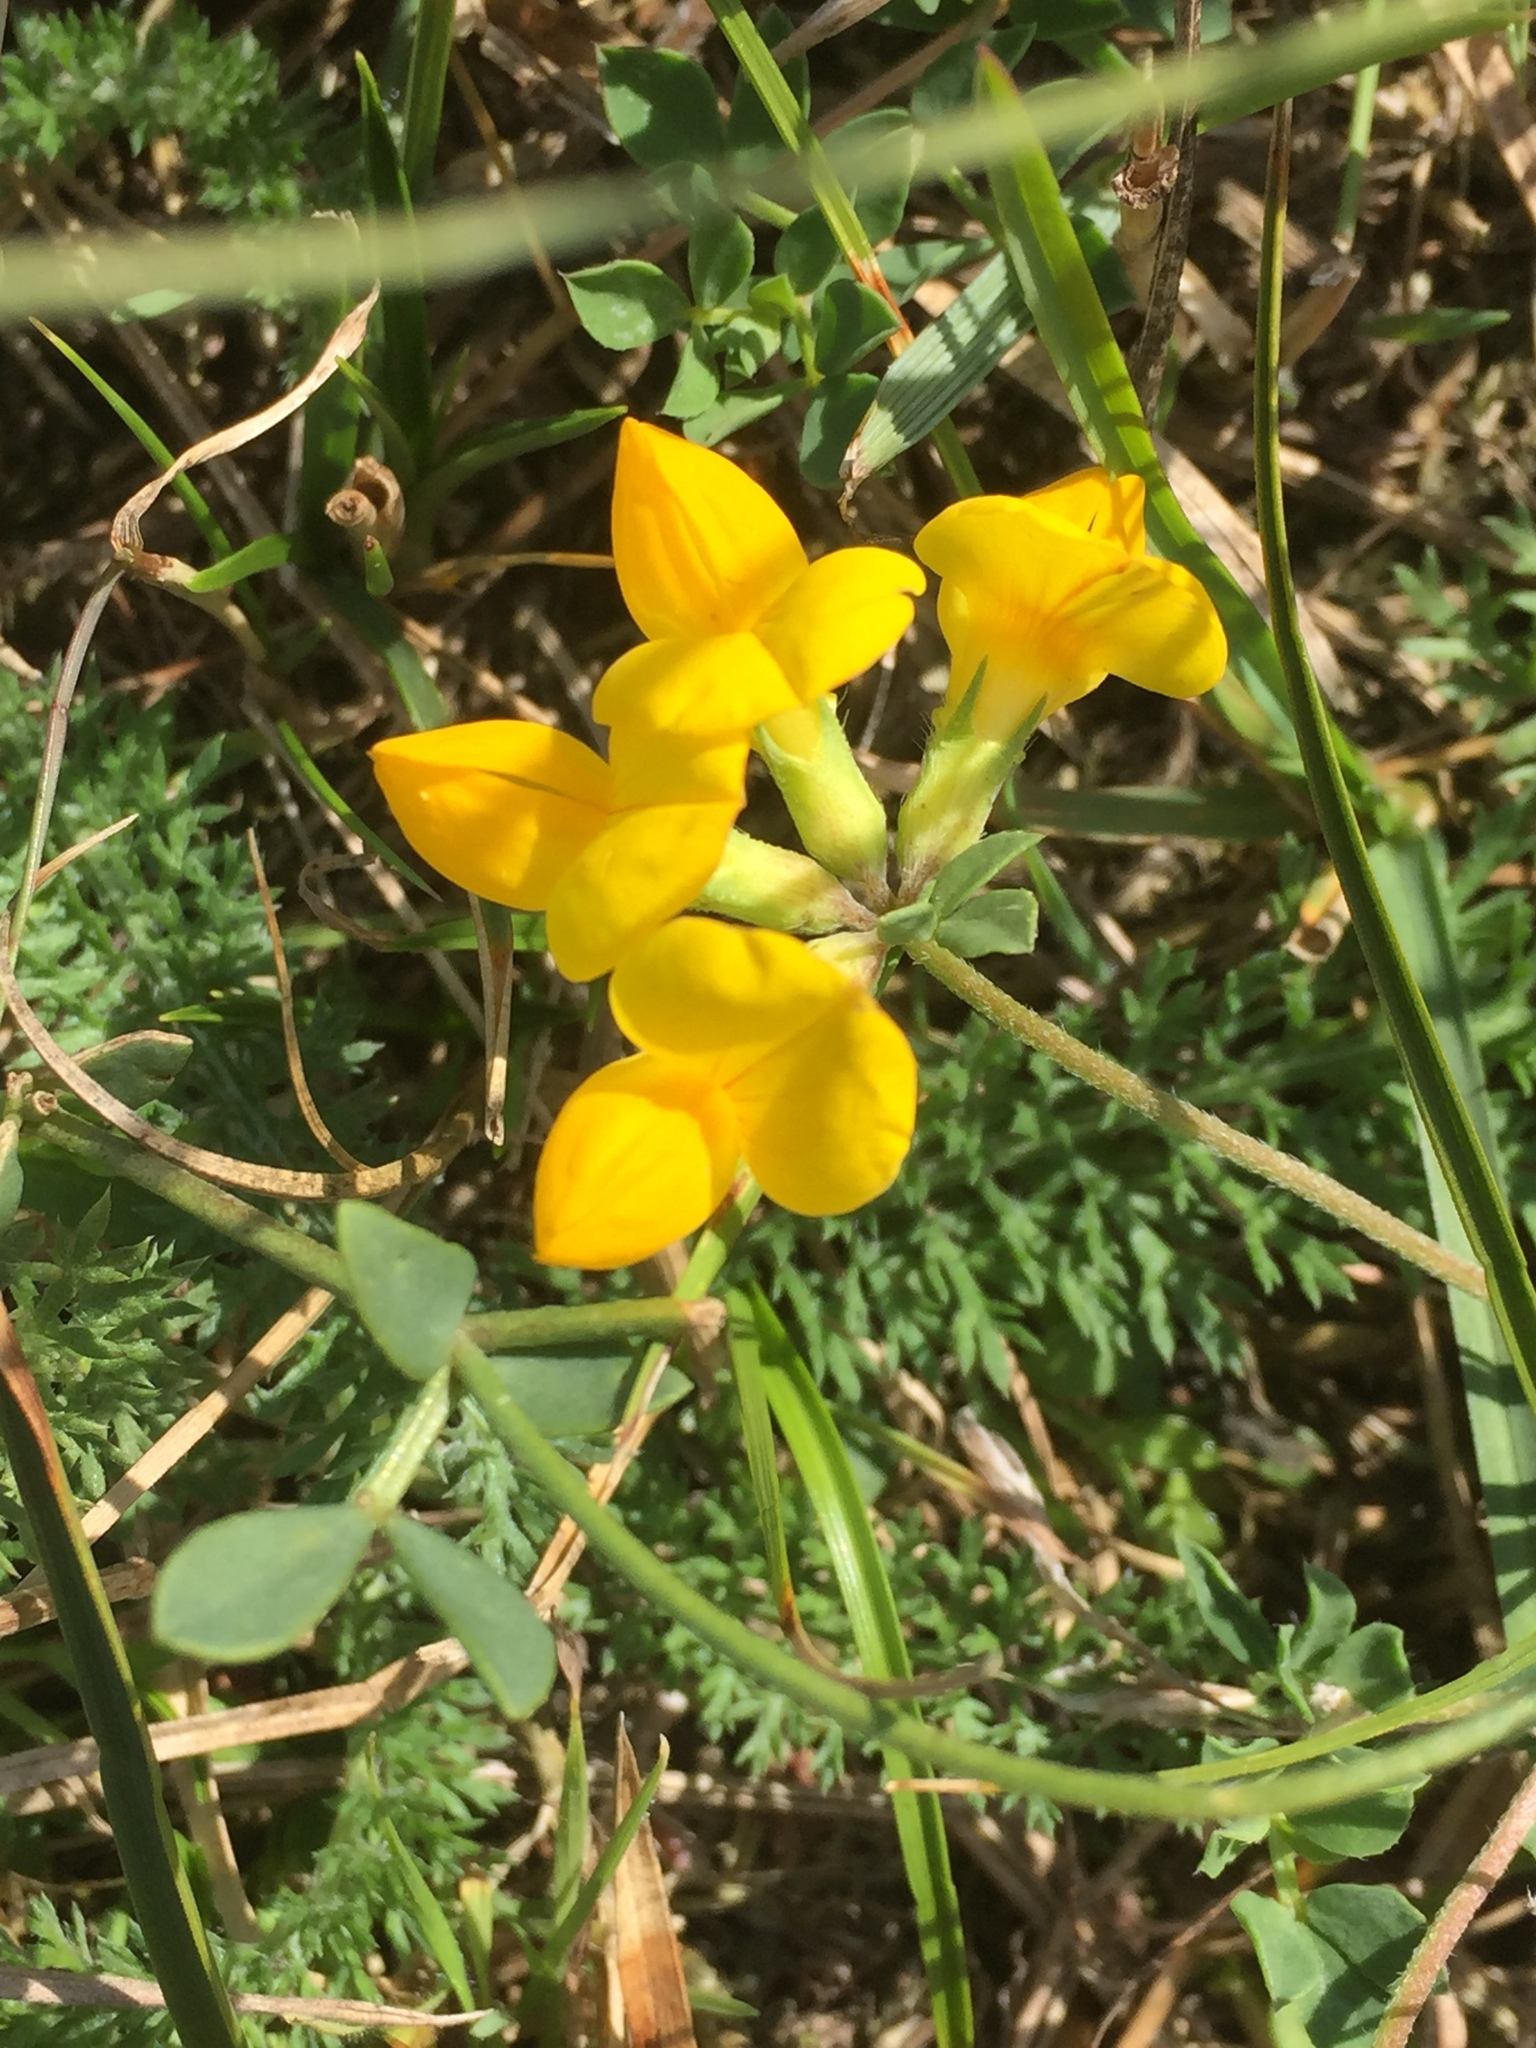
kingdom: Plantae
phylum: Tracheophyta
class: Magnoliopsida
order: Fabales
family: Fabaceae
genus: Lotus
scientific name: Lotus corniculatus
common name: Common bird's-foot-trefoil
